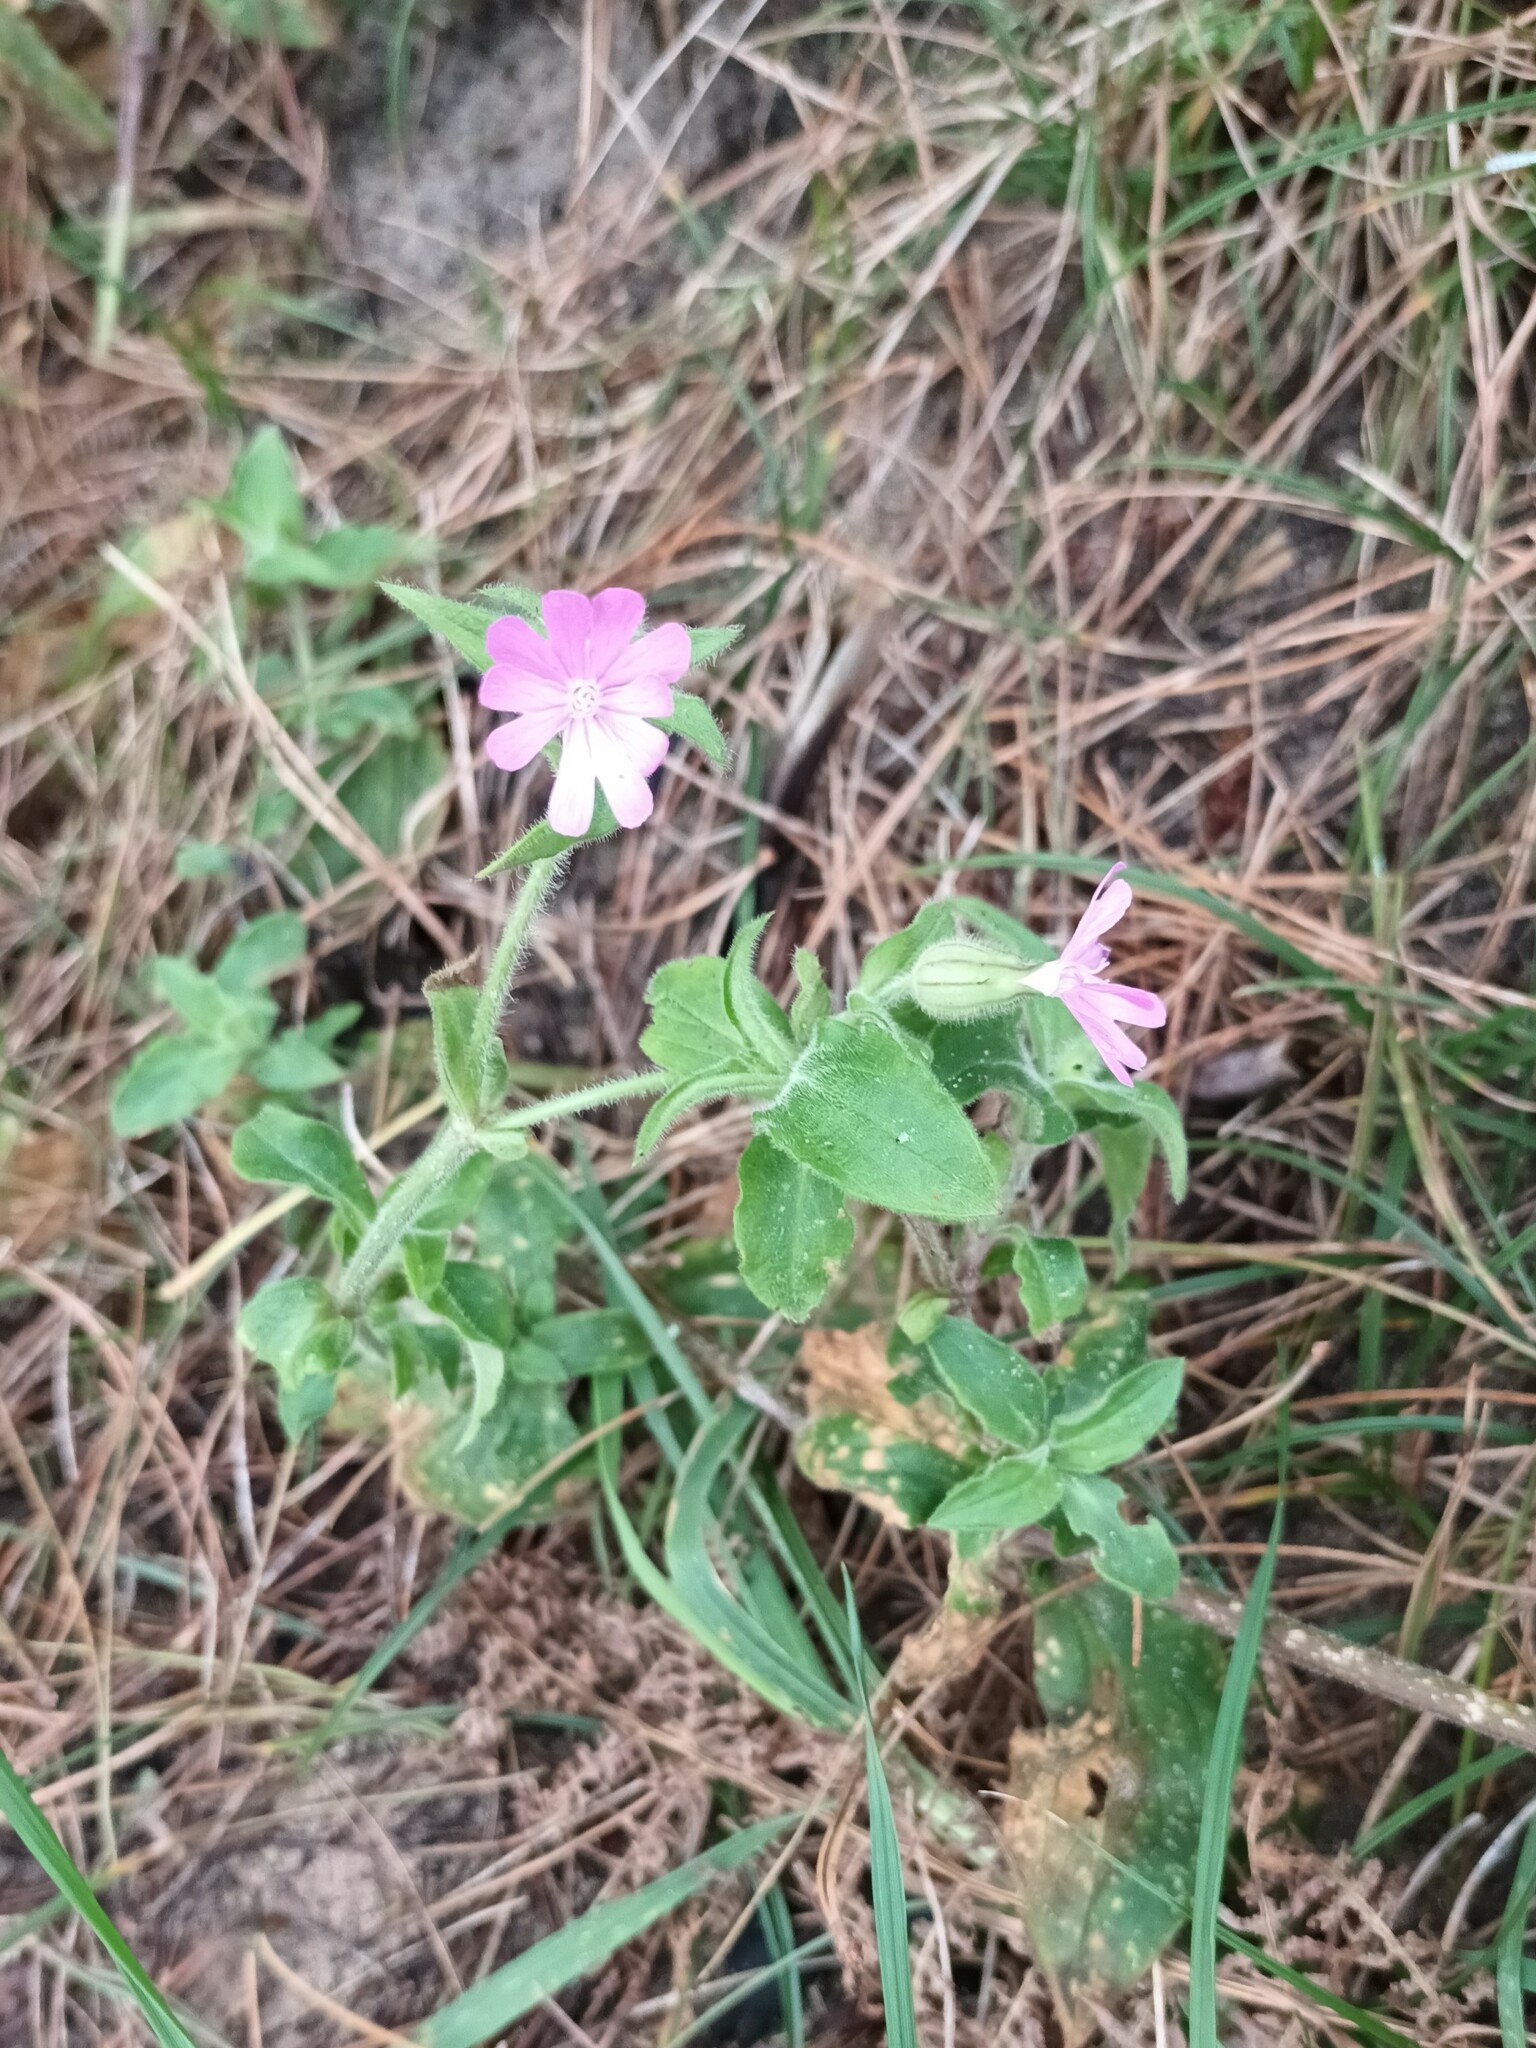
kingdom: Plantae
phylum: Tracheophyta
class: Magnoliopsida
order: Caryophyllales
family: Caryophyllaceae
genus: Silene
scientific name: Silene dioica
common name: Red campion
